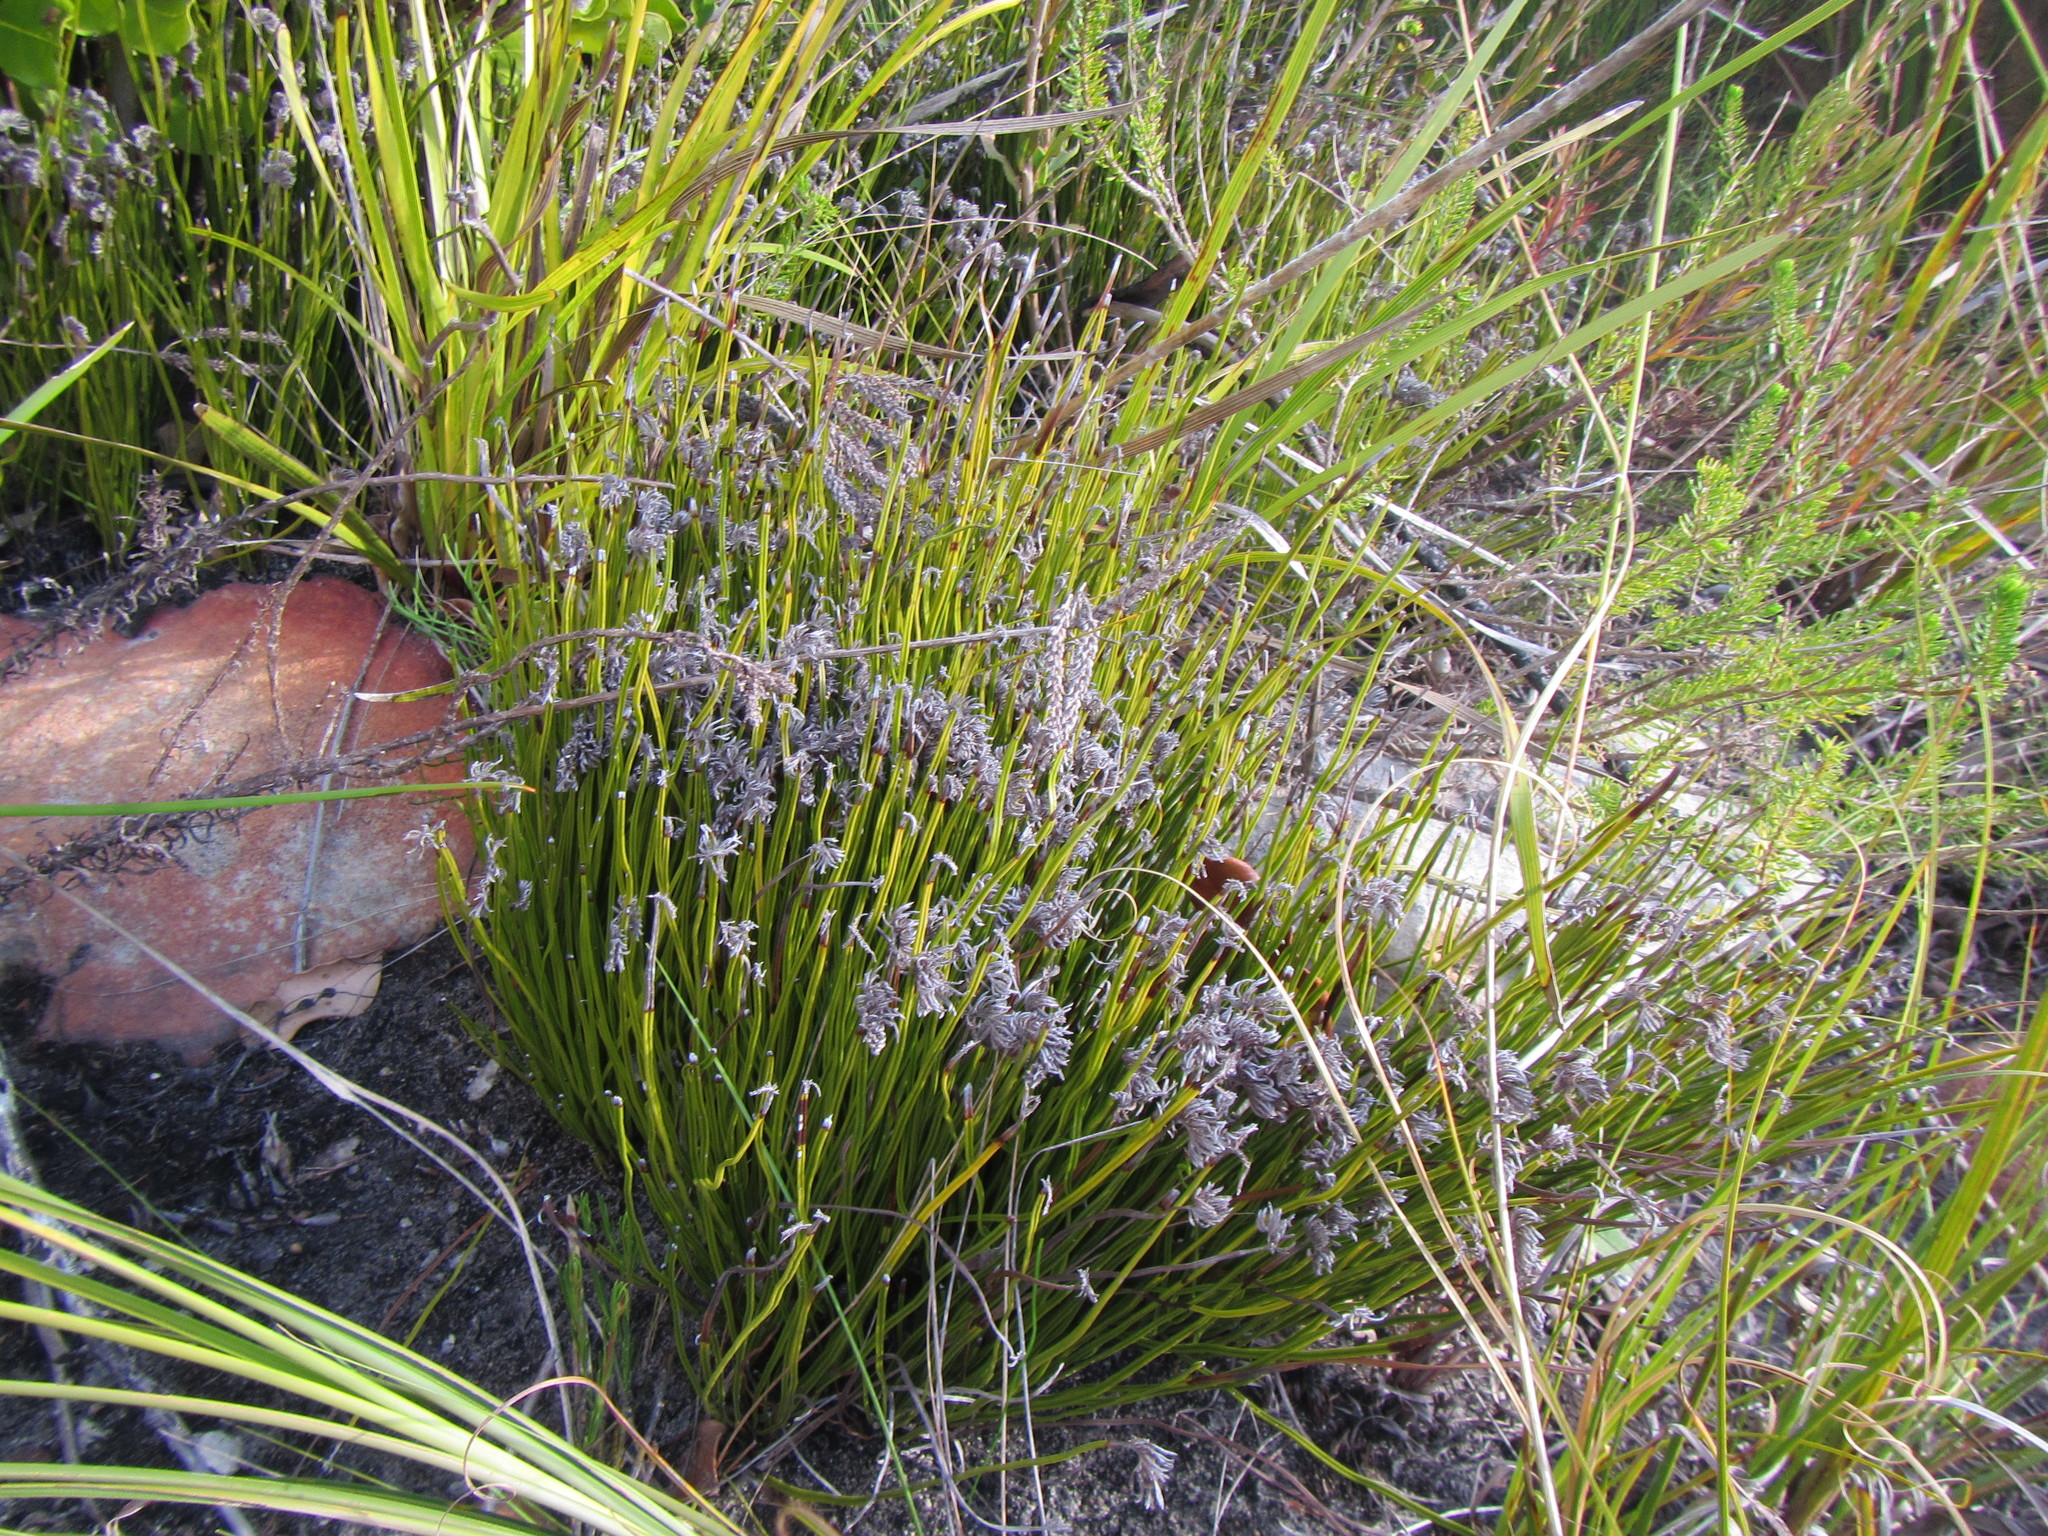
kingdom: Plantae
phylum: Tracheophyta
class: Polypodiopsida
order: Schizaeales
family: Schizaeaceae
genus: Schizaea
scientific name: Schizaea pectinata
